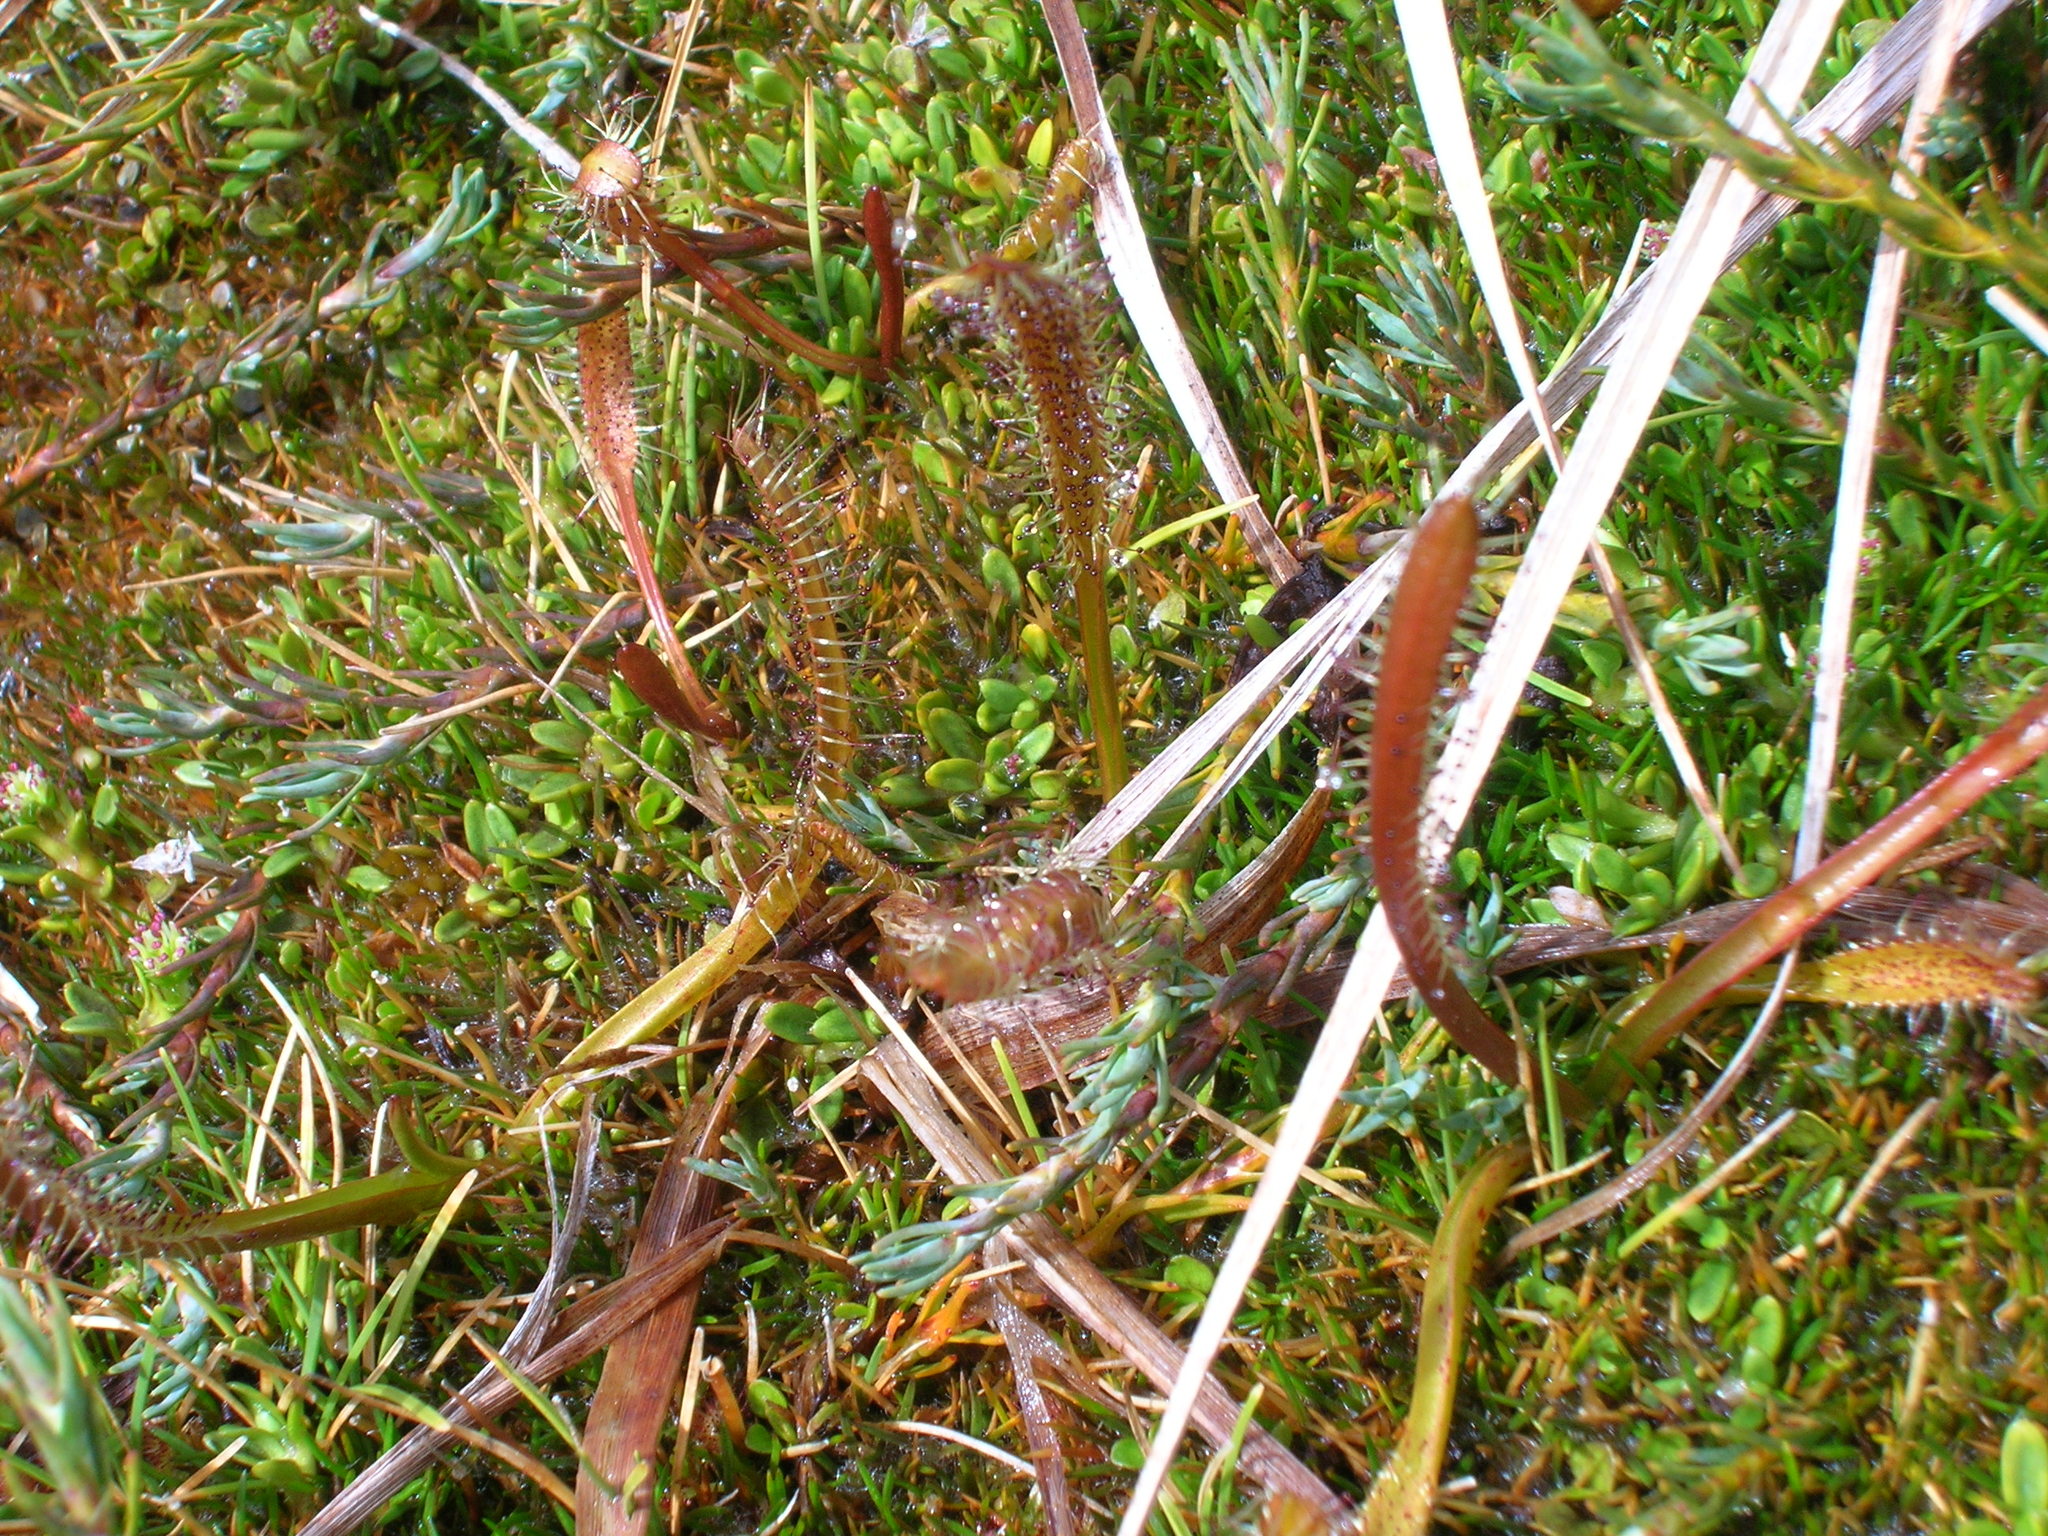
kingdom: Plantae
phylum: Tracheophyta
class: Magnoliopsida
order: Caryophyllales
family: Droseraceae
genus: Drosera
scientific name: Drosera arcturi
